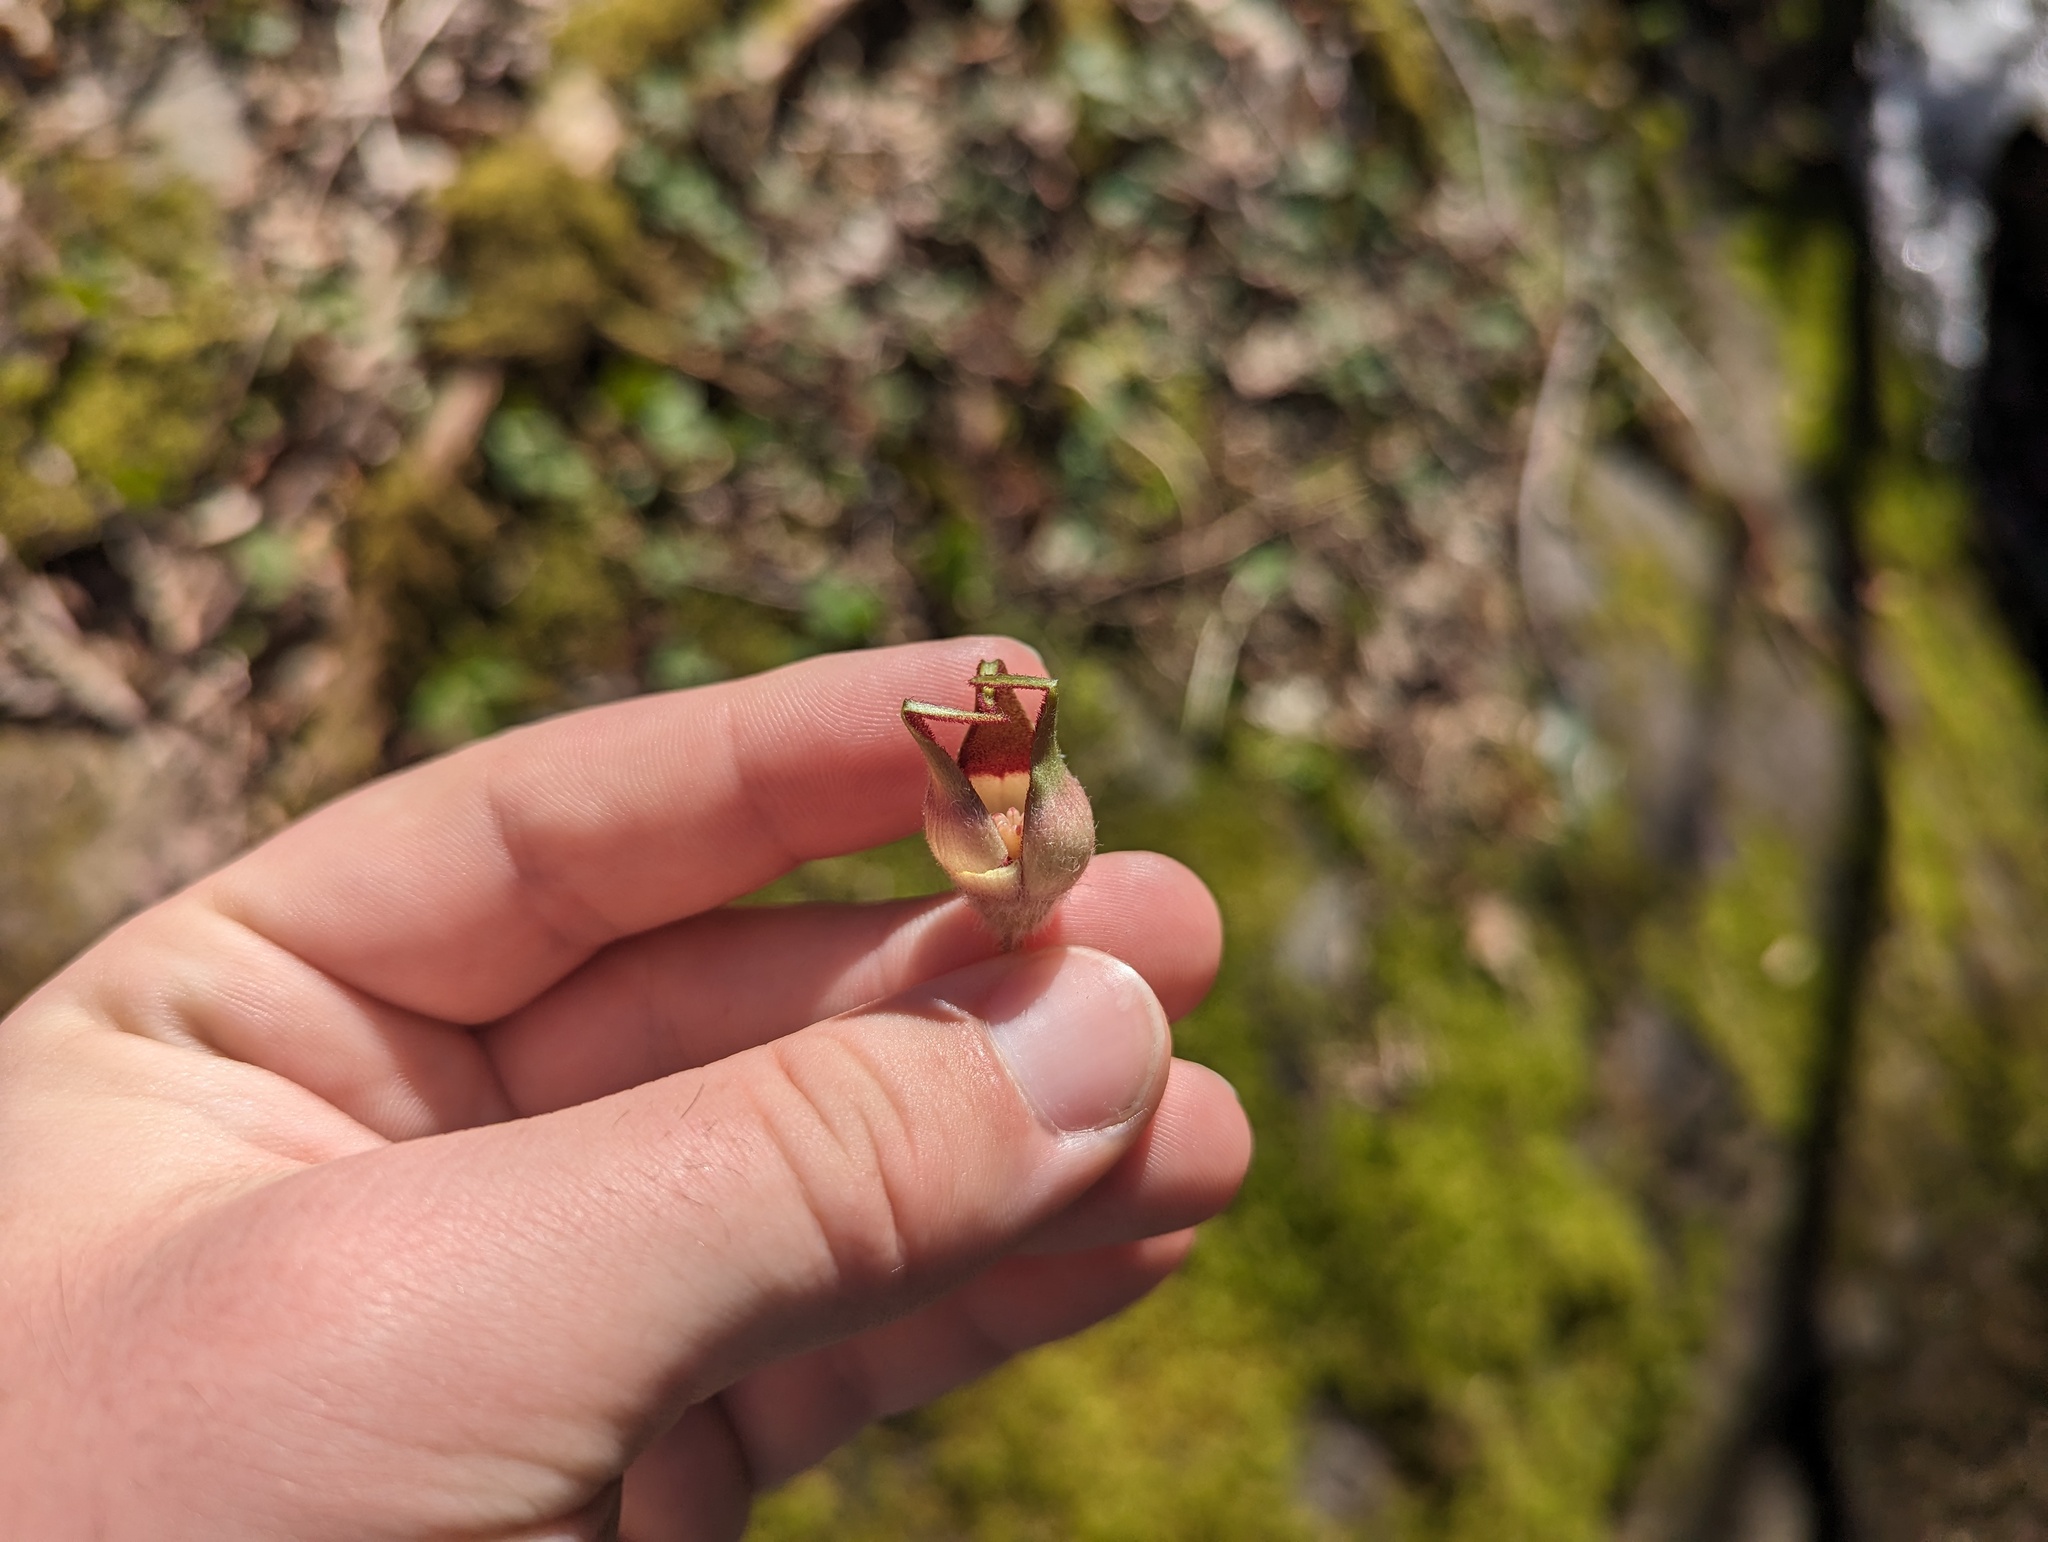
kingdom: Plantae
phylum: Tracheophyta
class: Magnoliopsida
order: Piperales
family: Aristolochiaceae
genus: Asarum
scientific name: Asarum canadense
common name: Wild ginger
